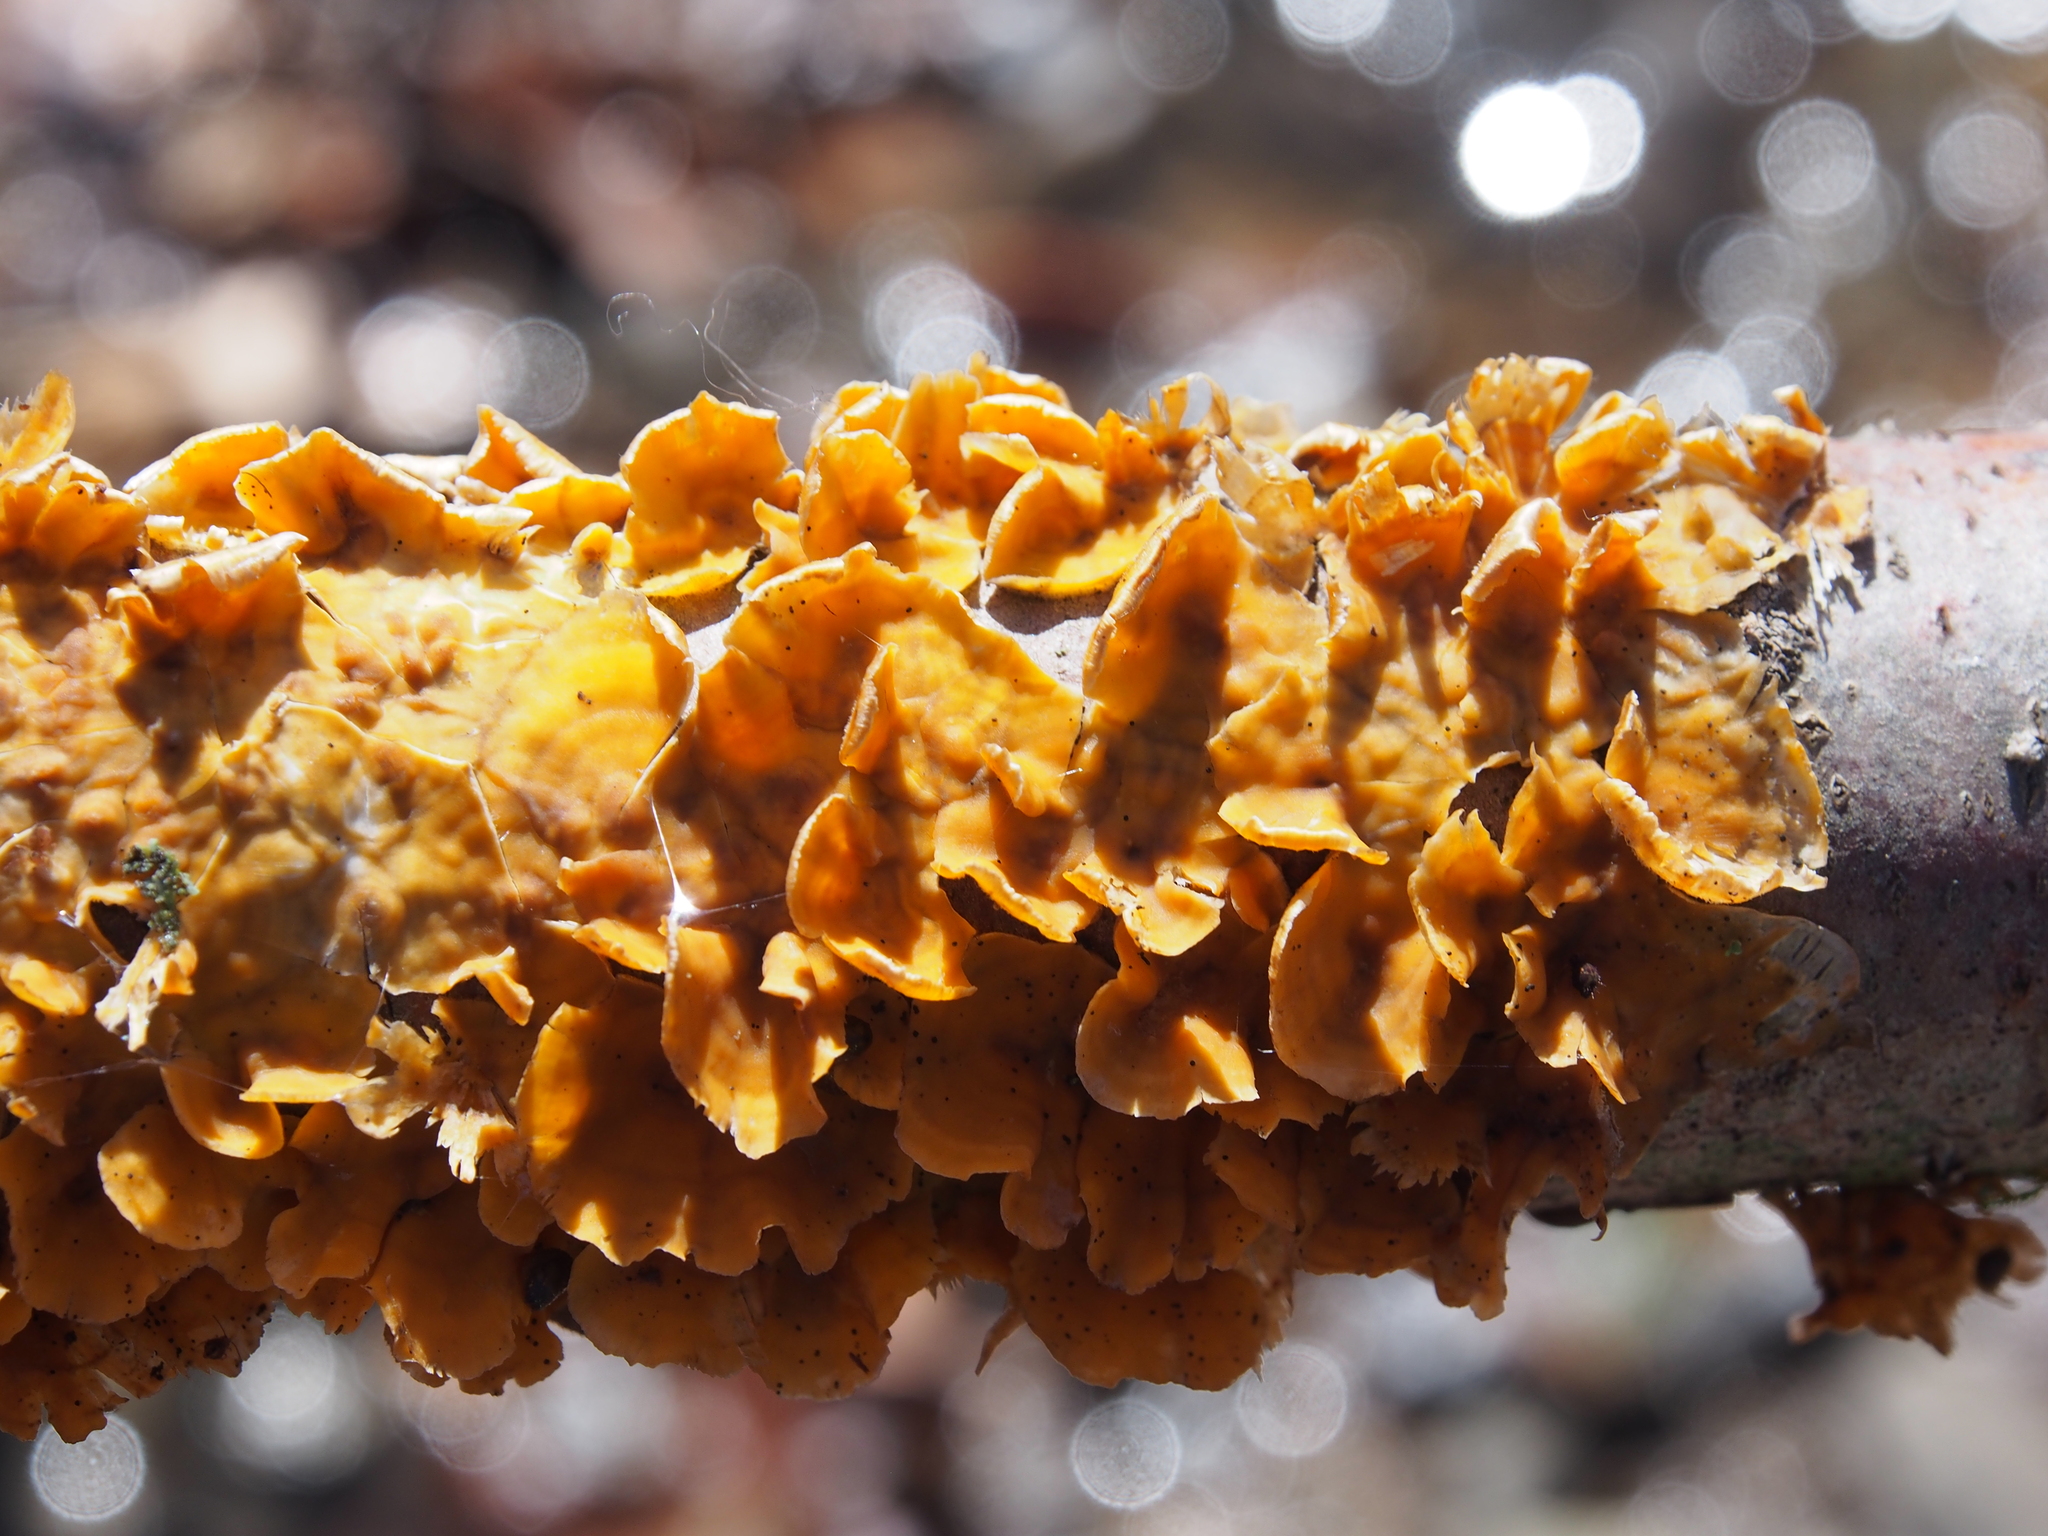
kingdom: Fungi
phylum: Basidiomycota
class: Agaricomycetes
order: Russulales
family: Stereaceae
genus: Stereum
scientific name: Stereum complicatum
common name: Crowded parchment
